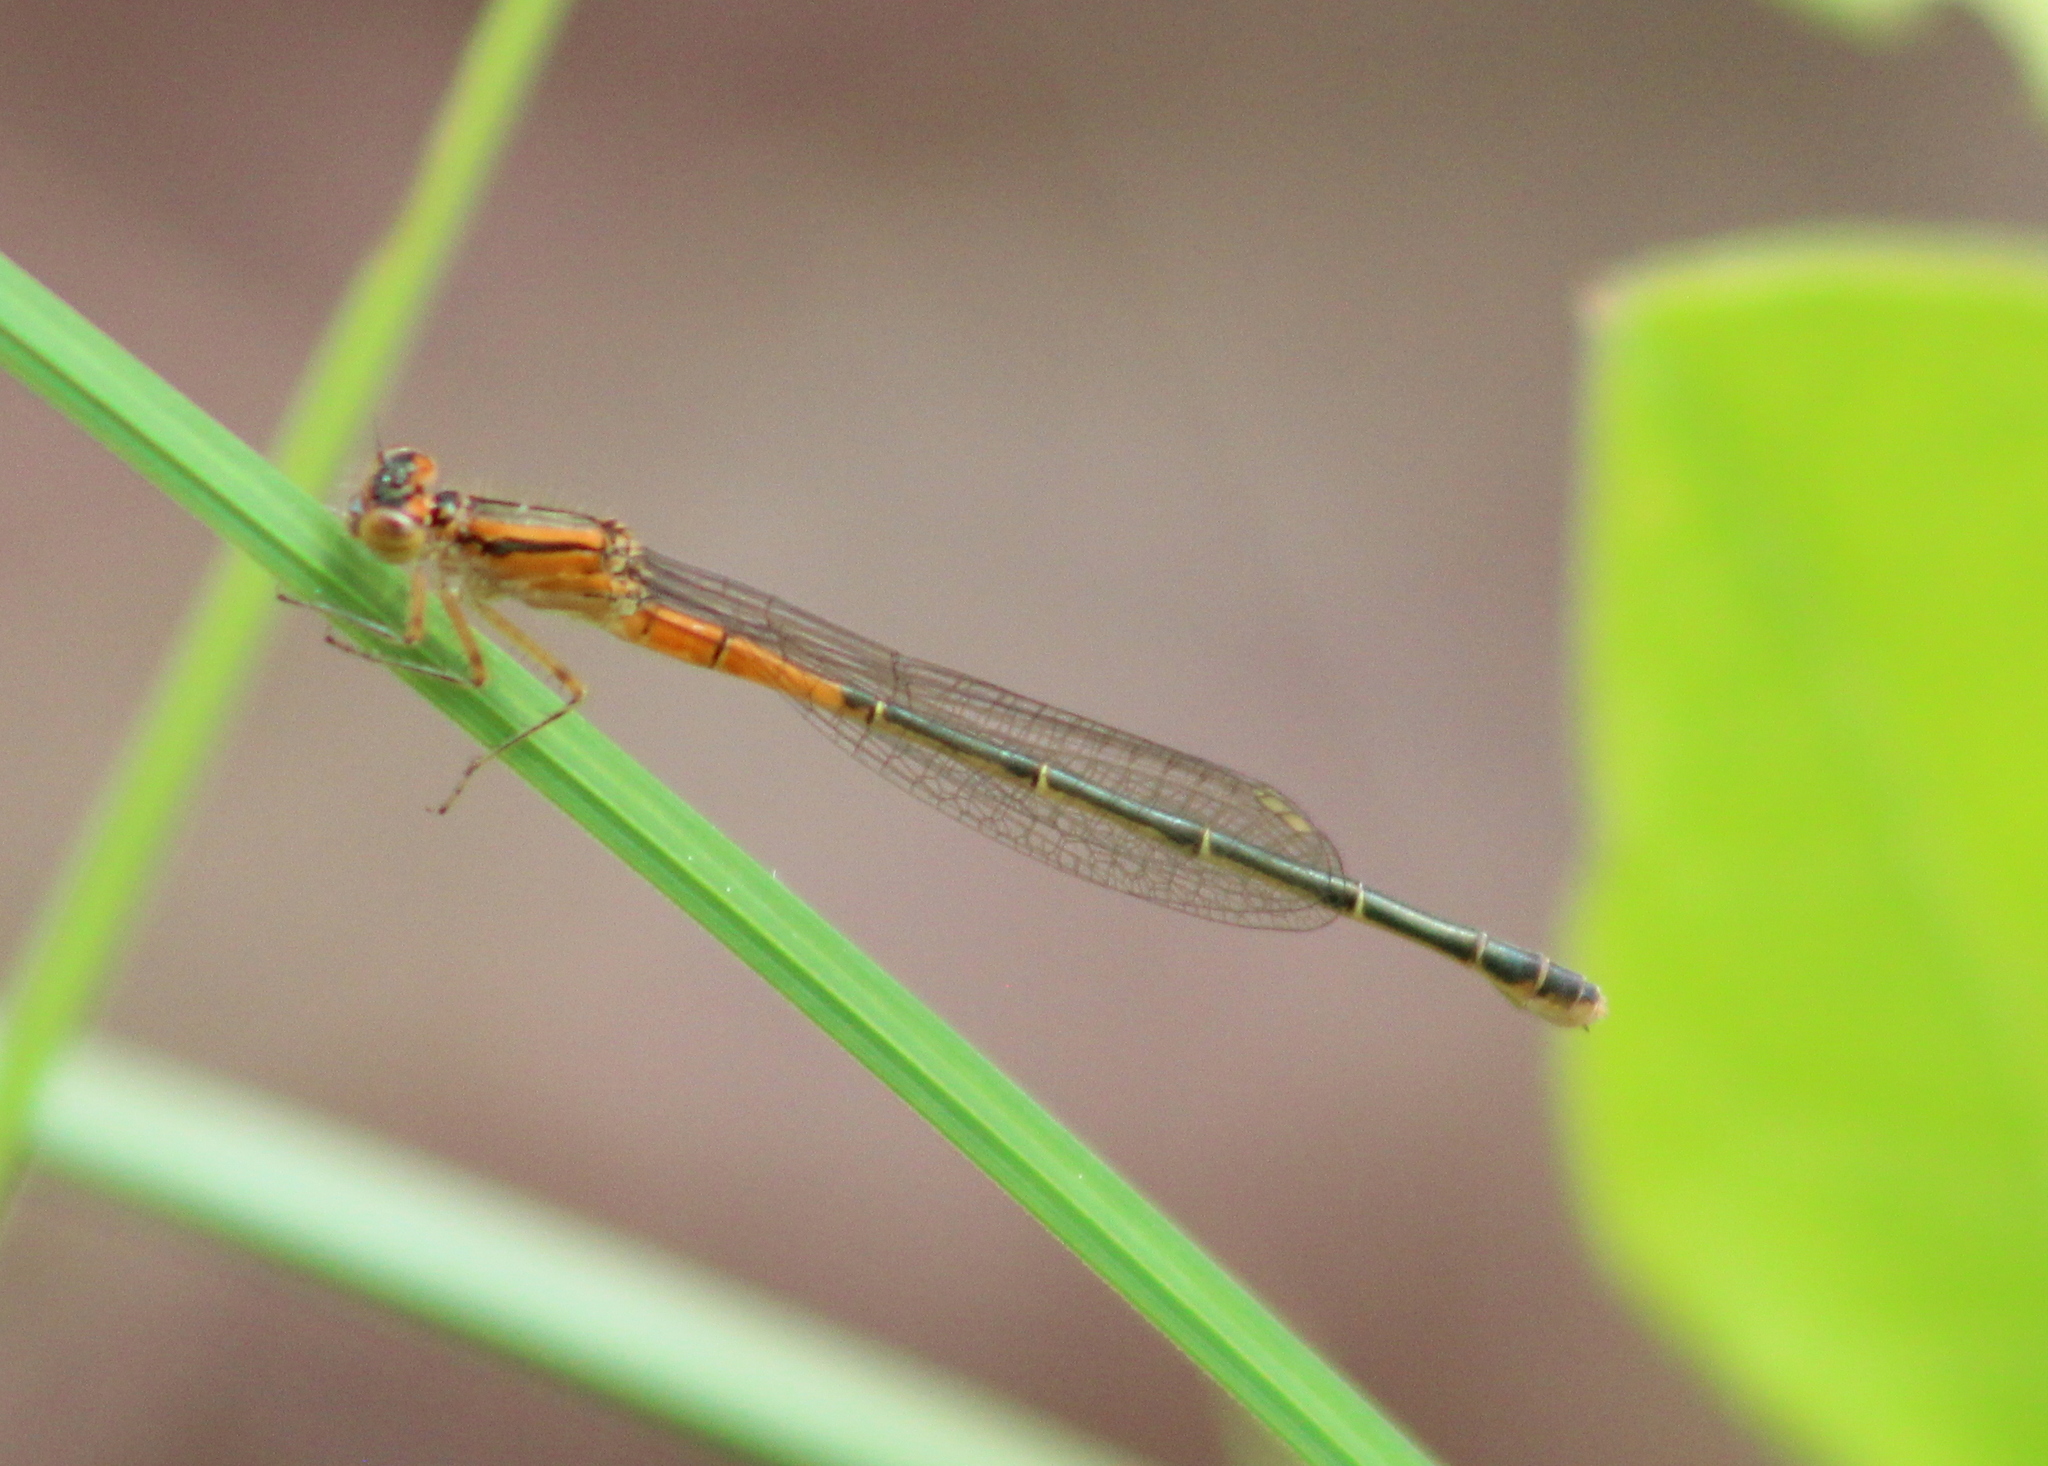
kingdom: Animalia
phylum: Arthropoda
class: Insecta
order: Odonata
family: Coenagrionidae
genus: Ischnura
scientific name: Ischnura verticalis
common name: Eastern forktail
